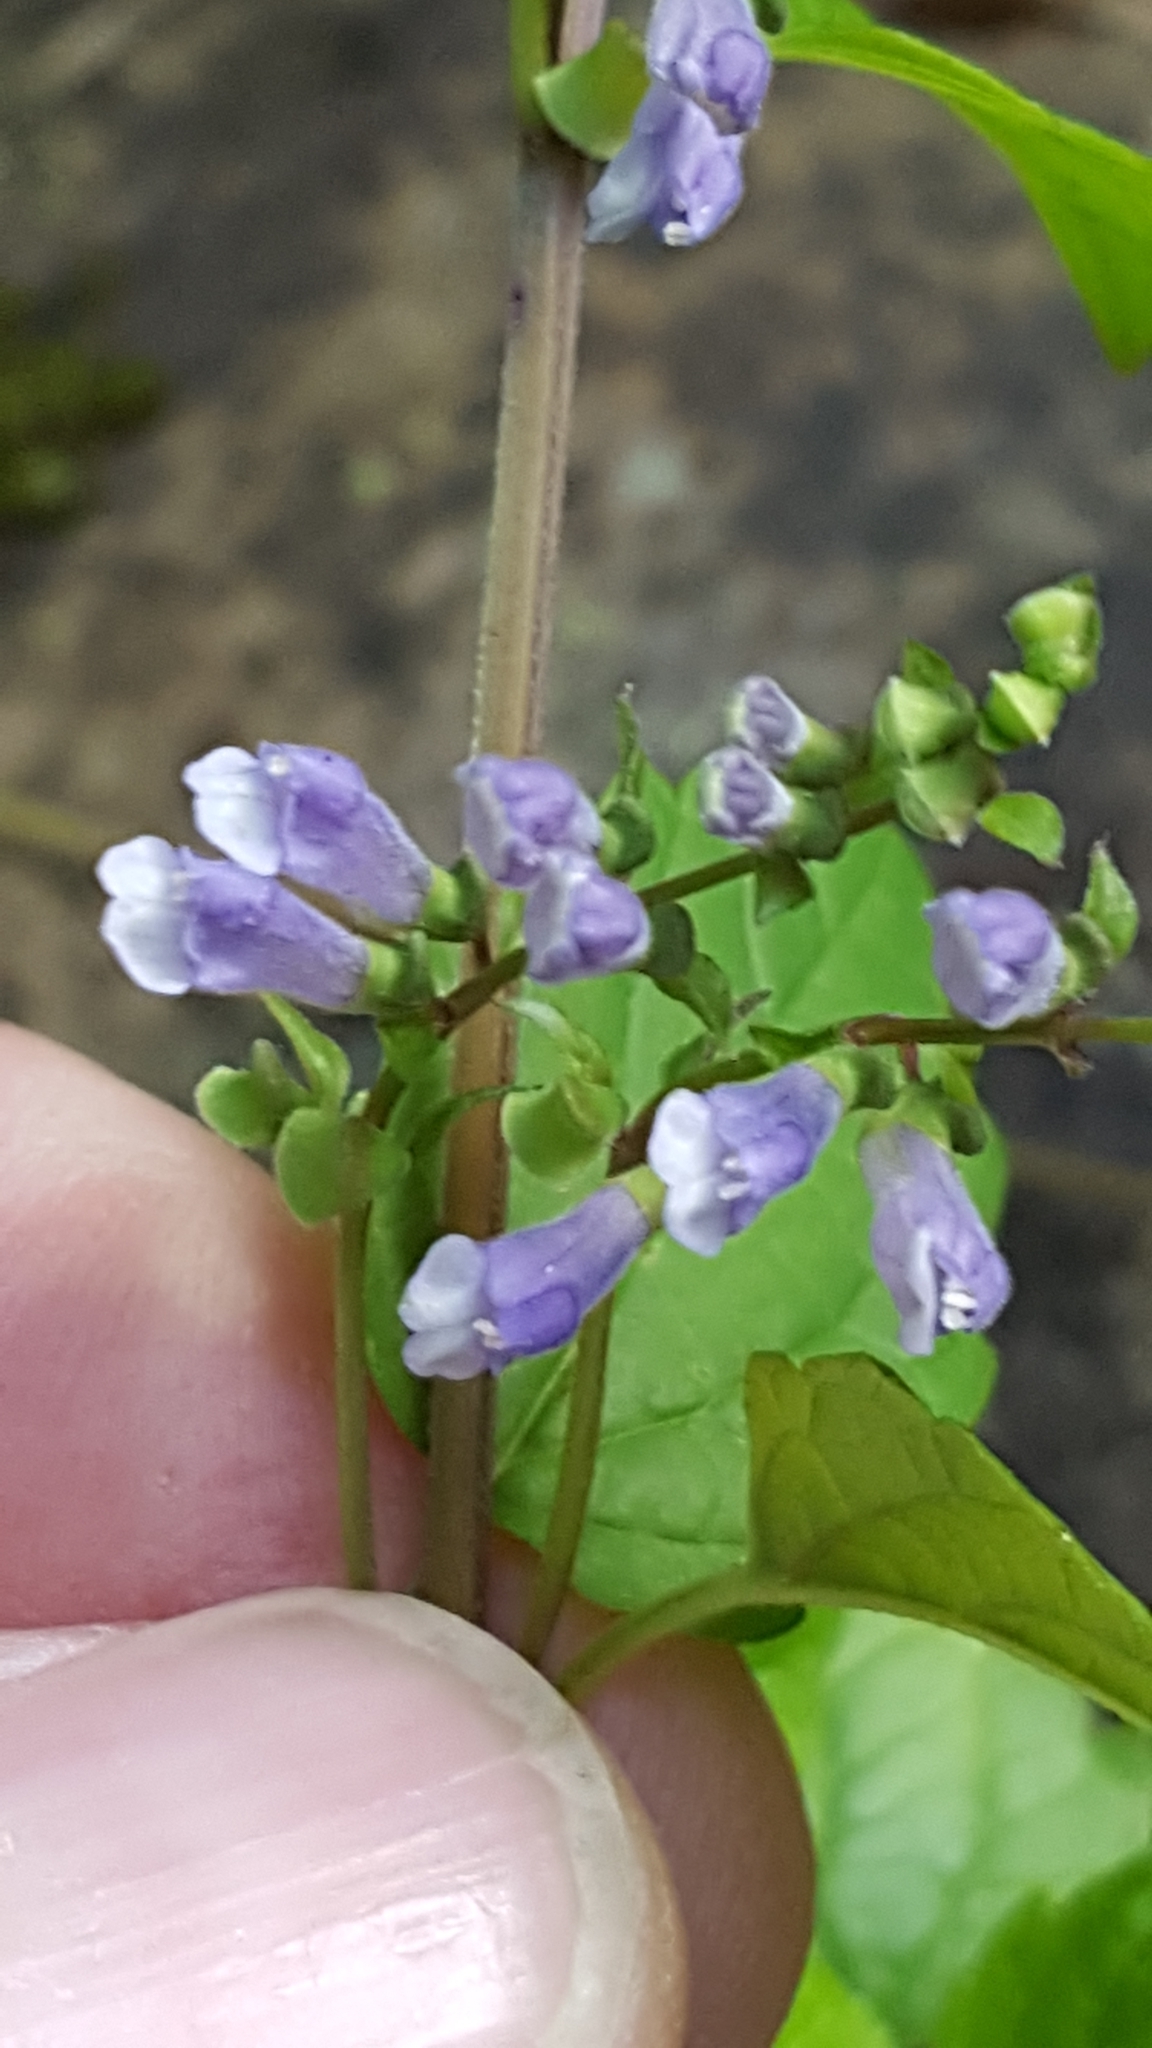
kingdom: Plantae
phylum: Tracheophyta
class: Magnoliopsida
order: Lamiales
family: Lamiaceae
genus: Scutellaria
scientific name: Scutellaria lateriflora
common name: Blue skullcap
